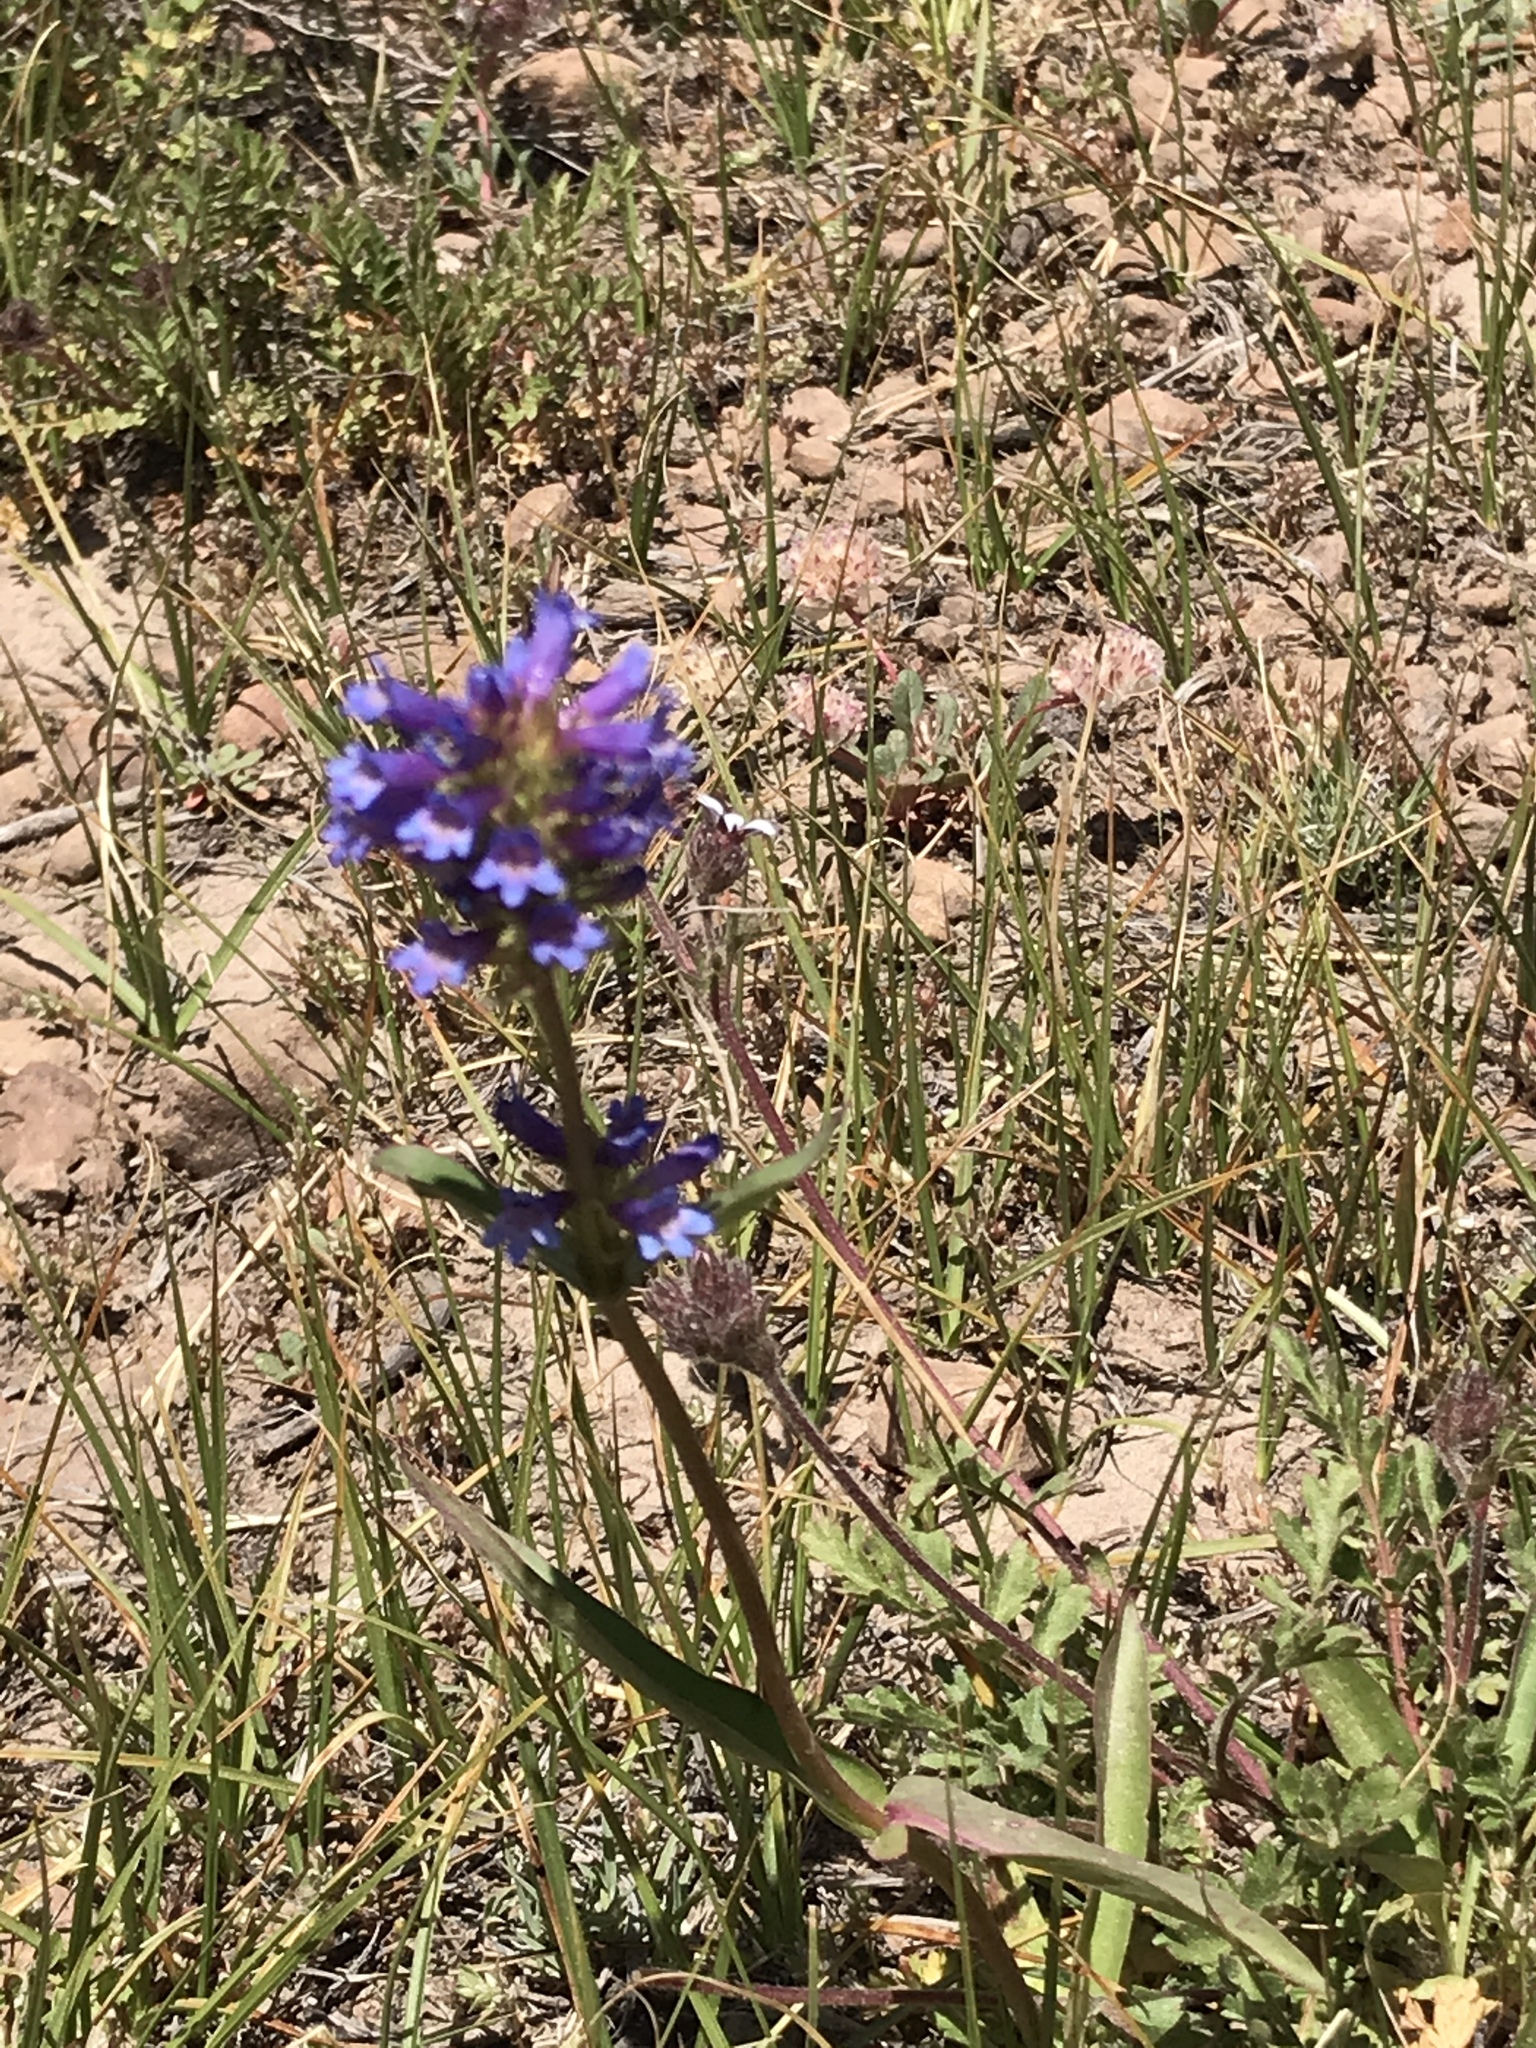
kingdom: Plantae
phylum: Tracheophyta
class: Magnoliopsida
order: Lamiales
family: Plantaginaceae
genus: Penstemon
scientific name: Penstemon rydbergii
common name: Rydberg's beardtongue
